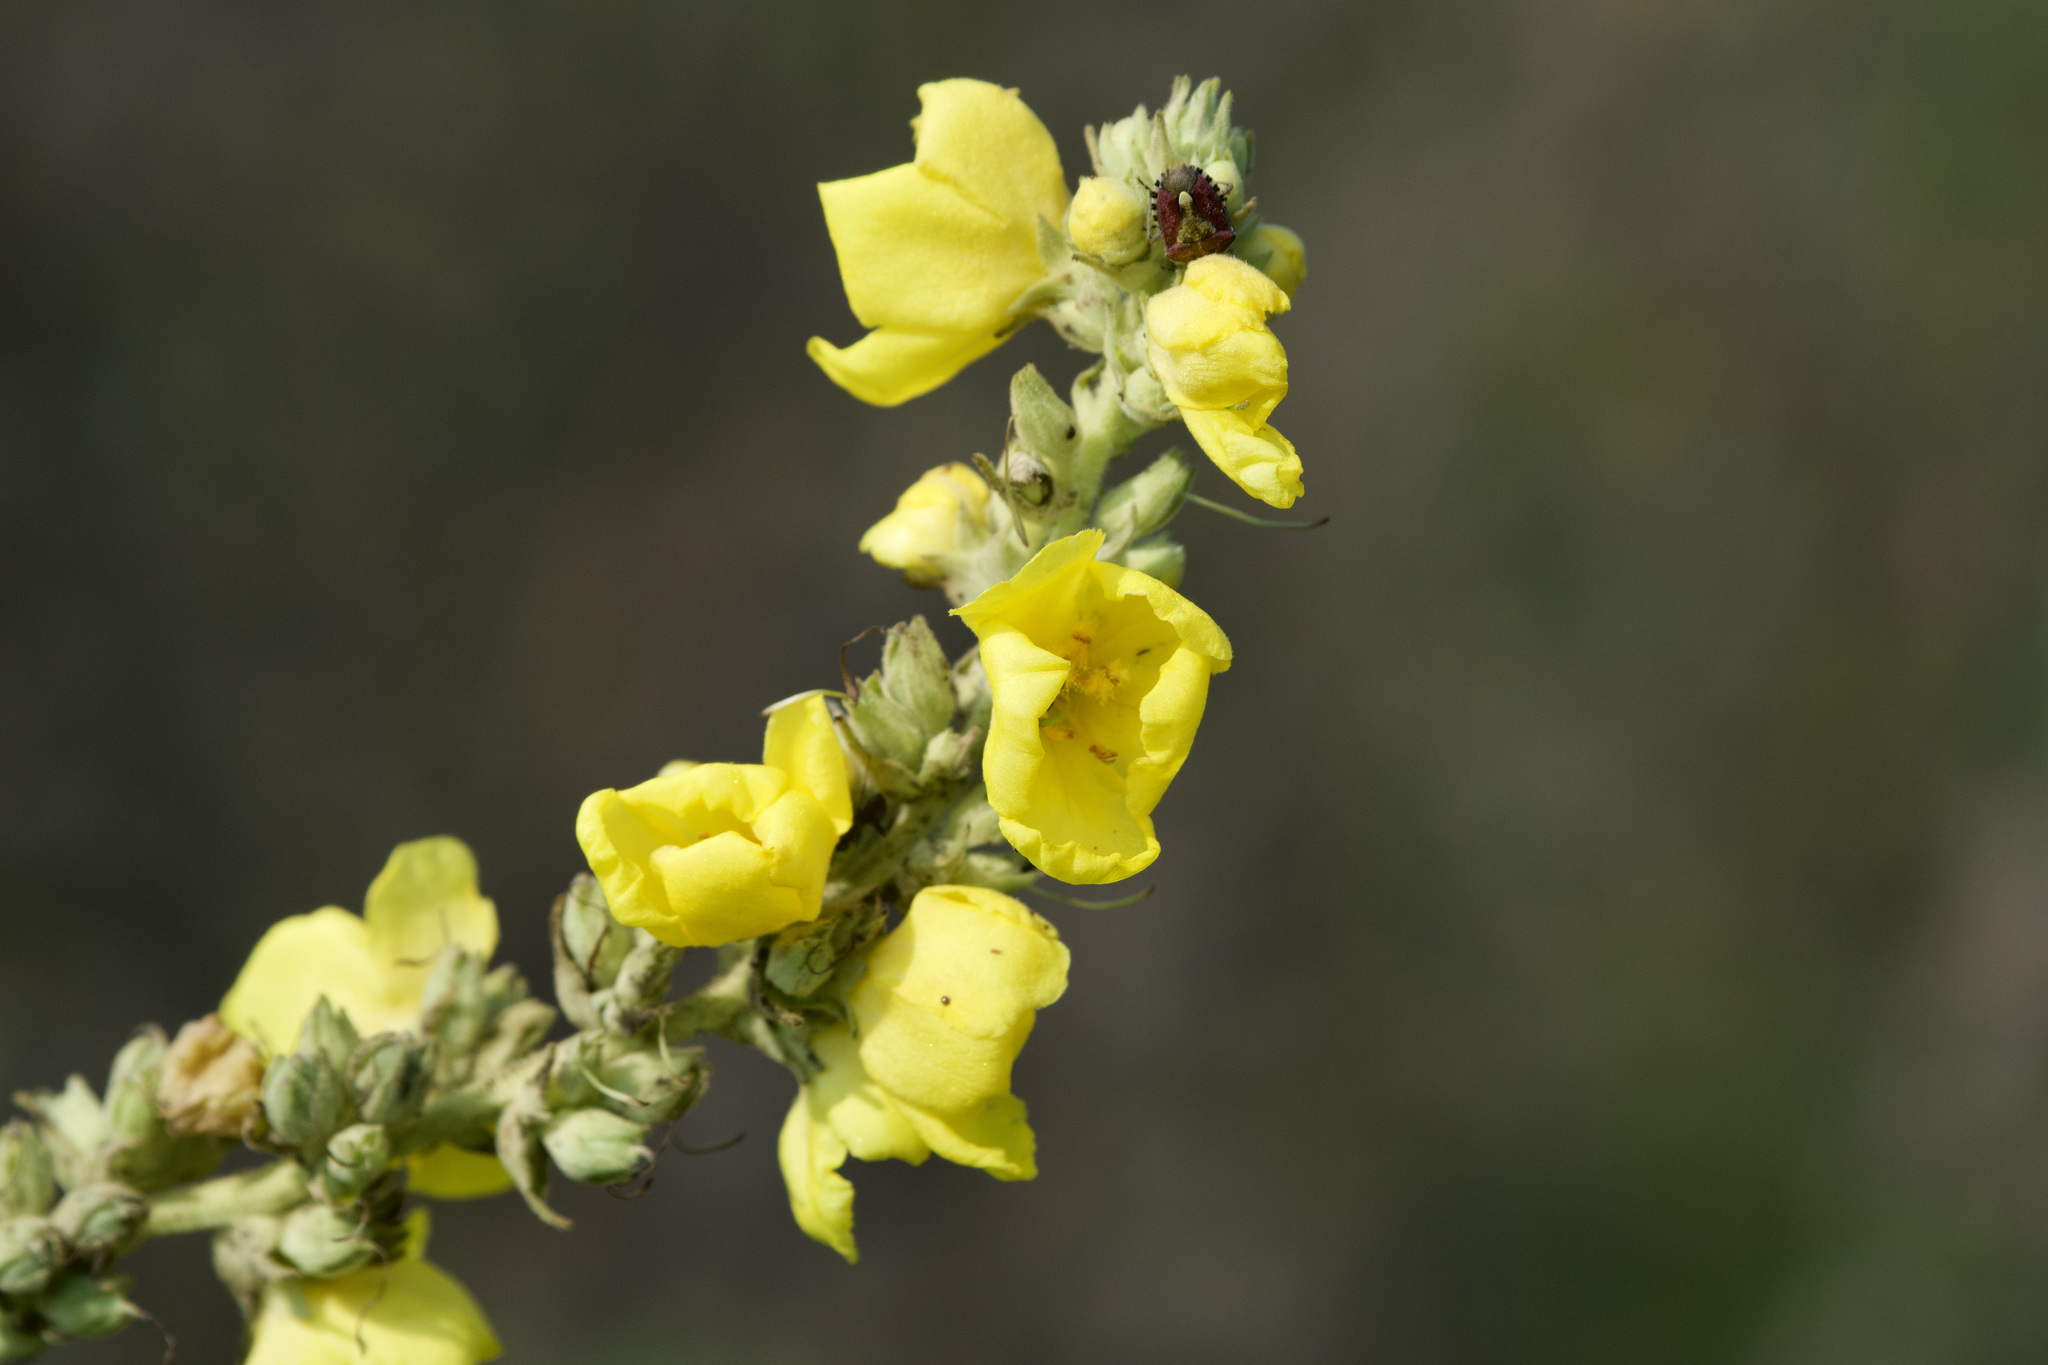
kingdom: Plantae
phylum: Tracheophyta
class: Magnoliopsida
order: Lamiales
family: Scrophulariaceae
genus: Verbascum
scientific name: Verbascum phlomoides
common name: Orange mullein
